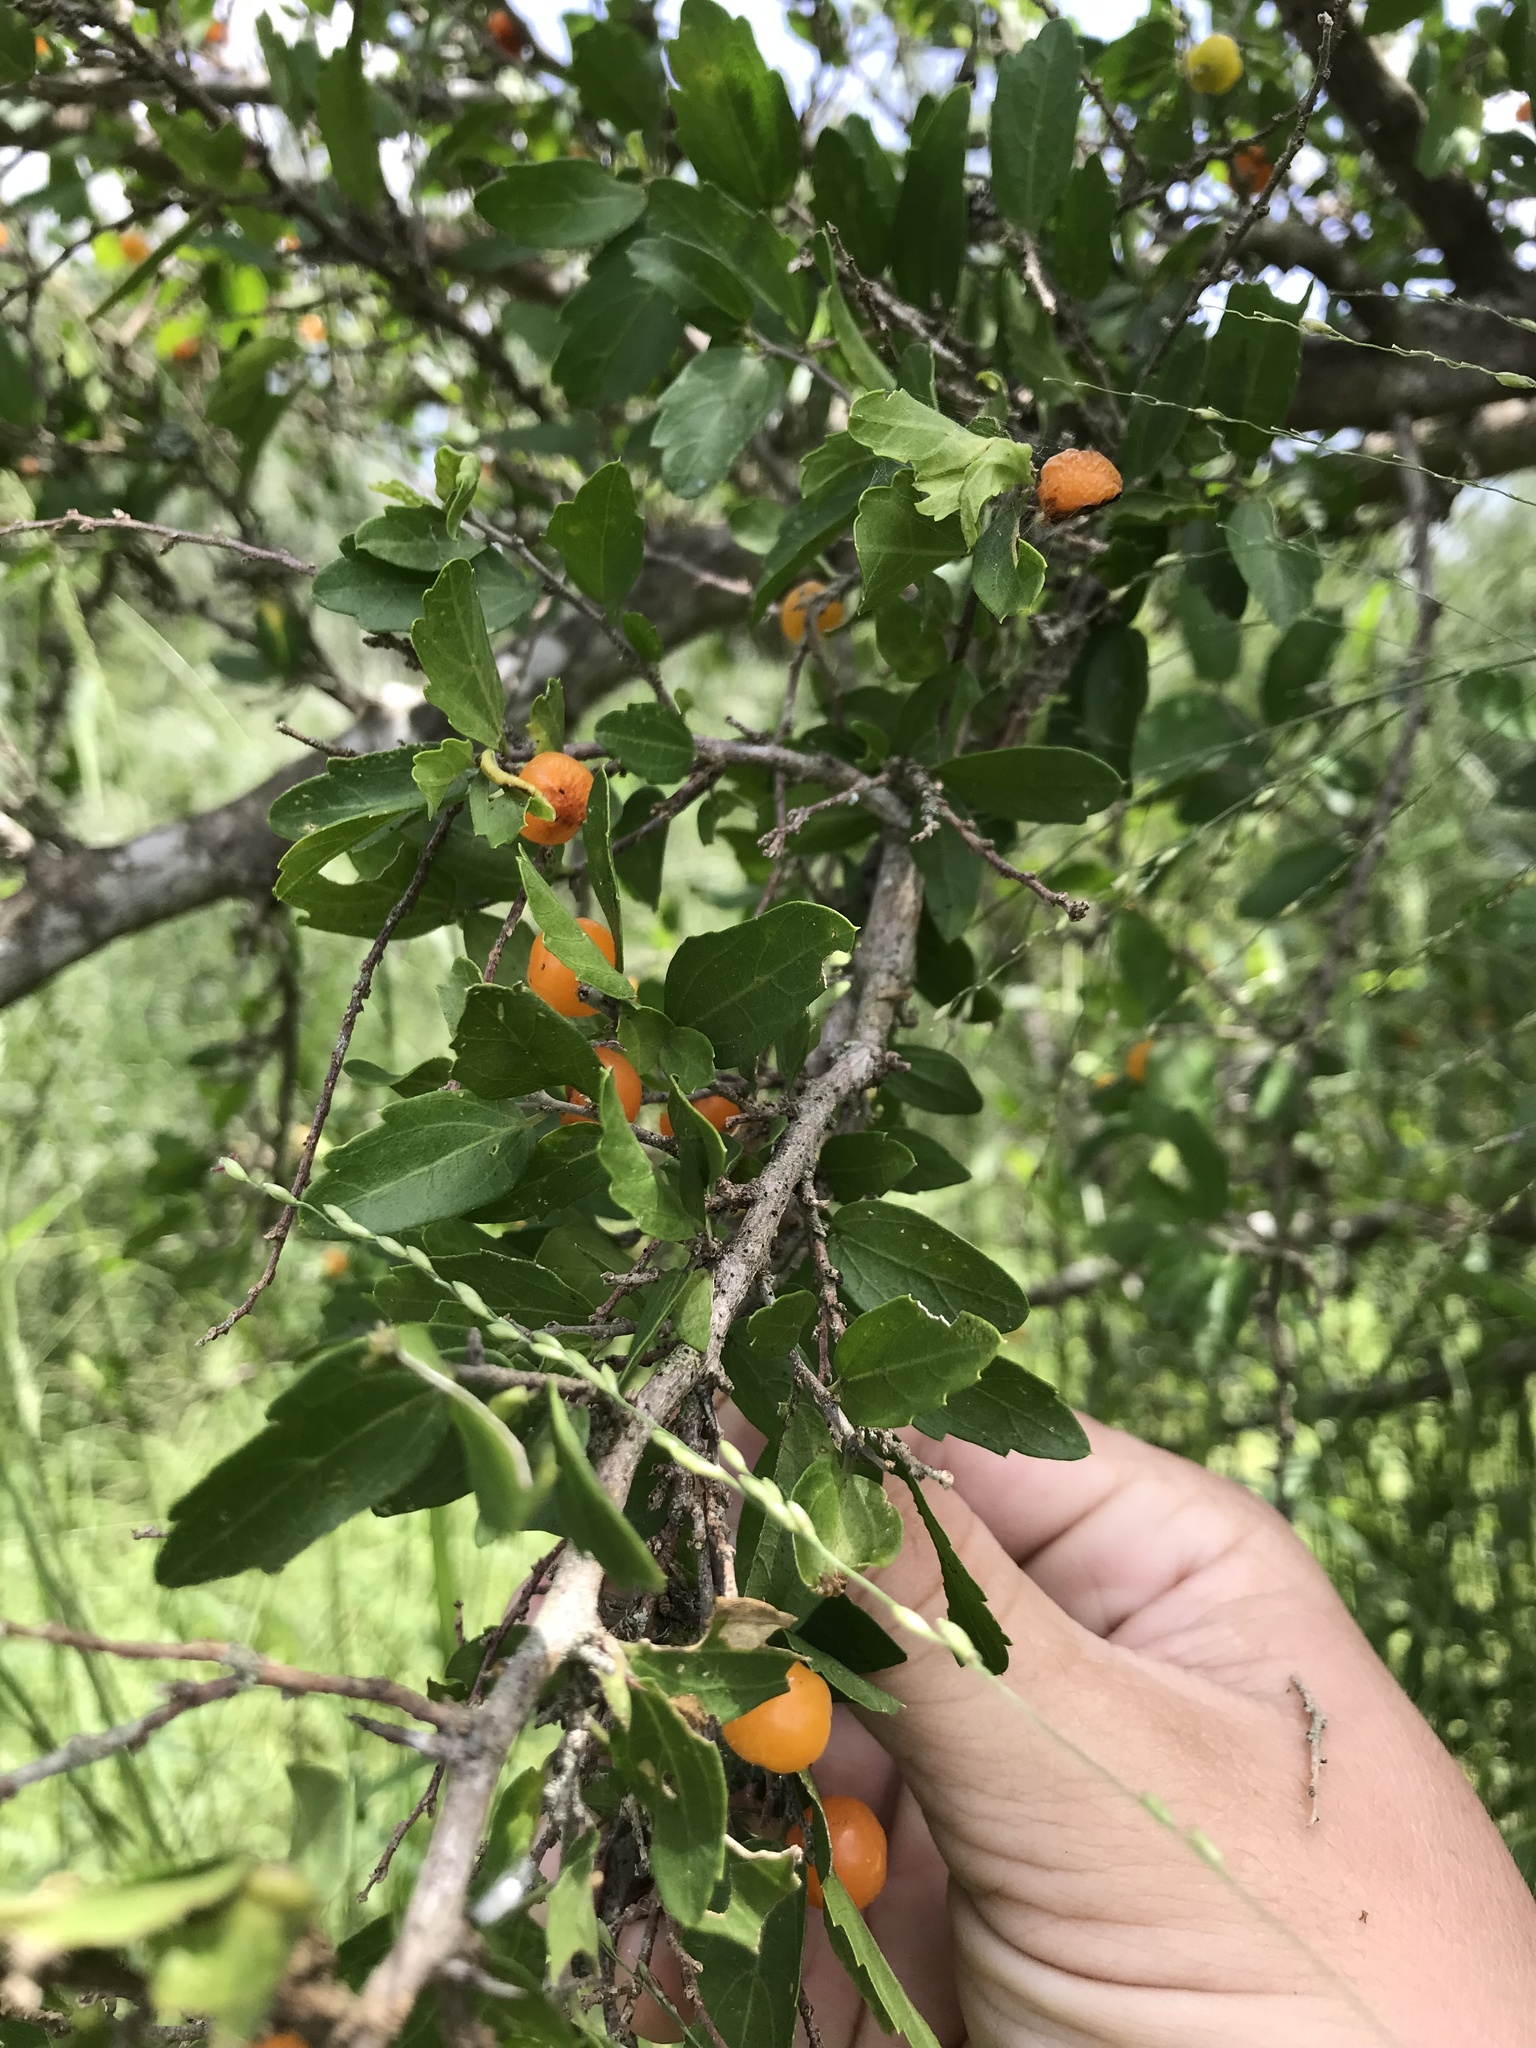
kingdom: Plantae
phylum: Tracheophyta
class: Magnoliopsida
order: Rosales
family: Cannabaceae
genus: Celtis
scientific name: Celtis pallida
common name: Desert hackberry
